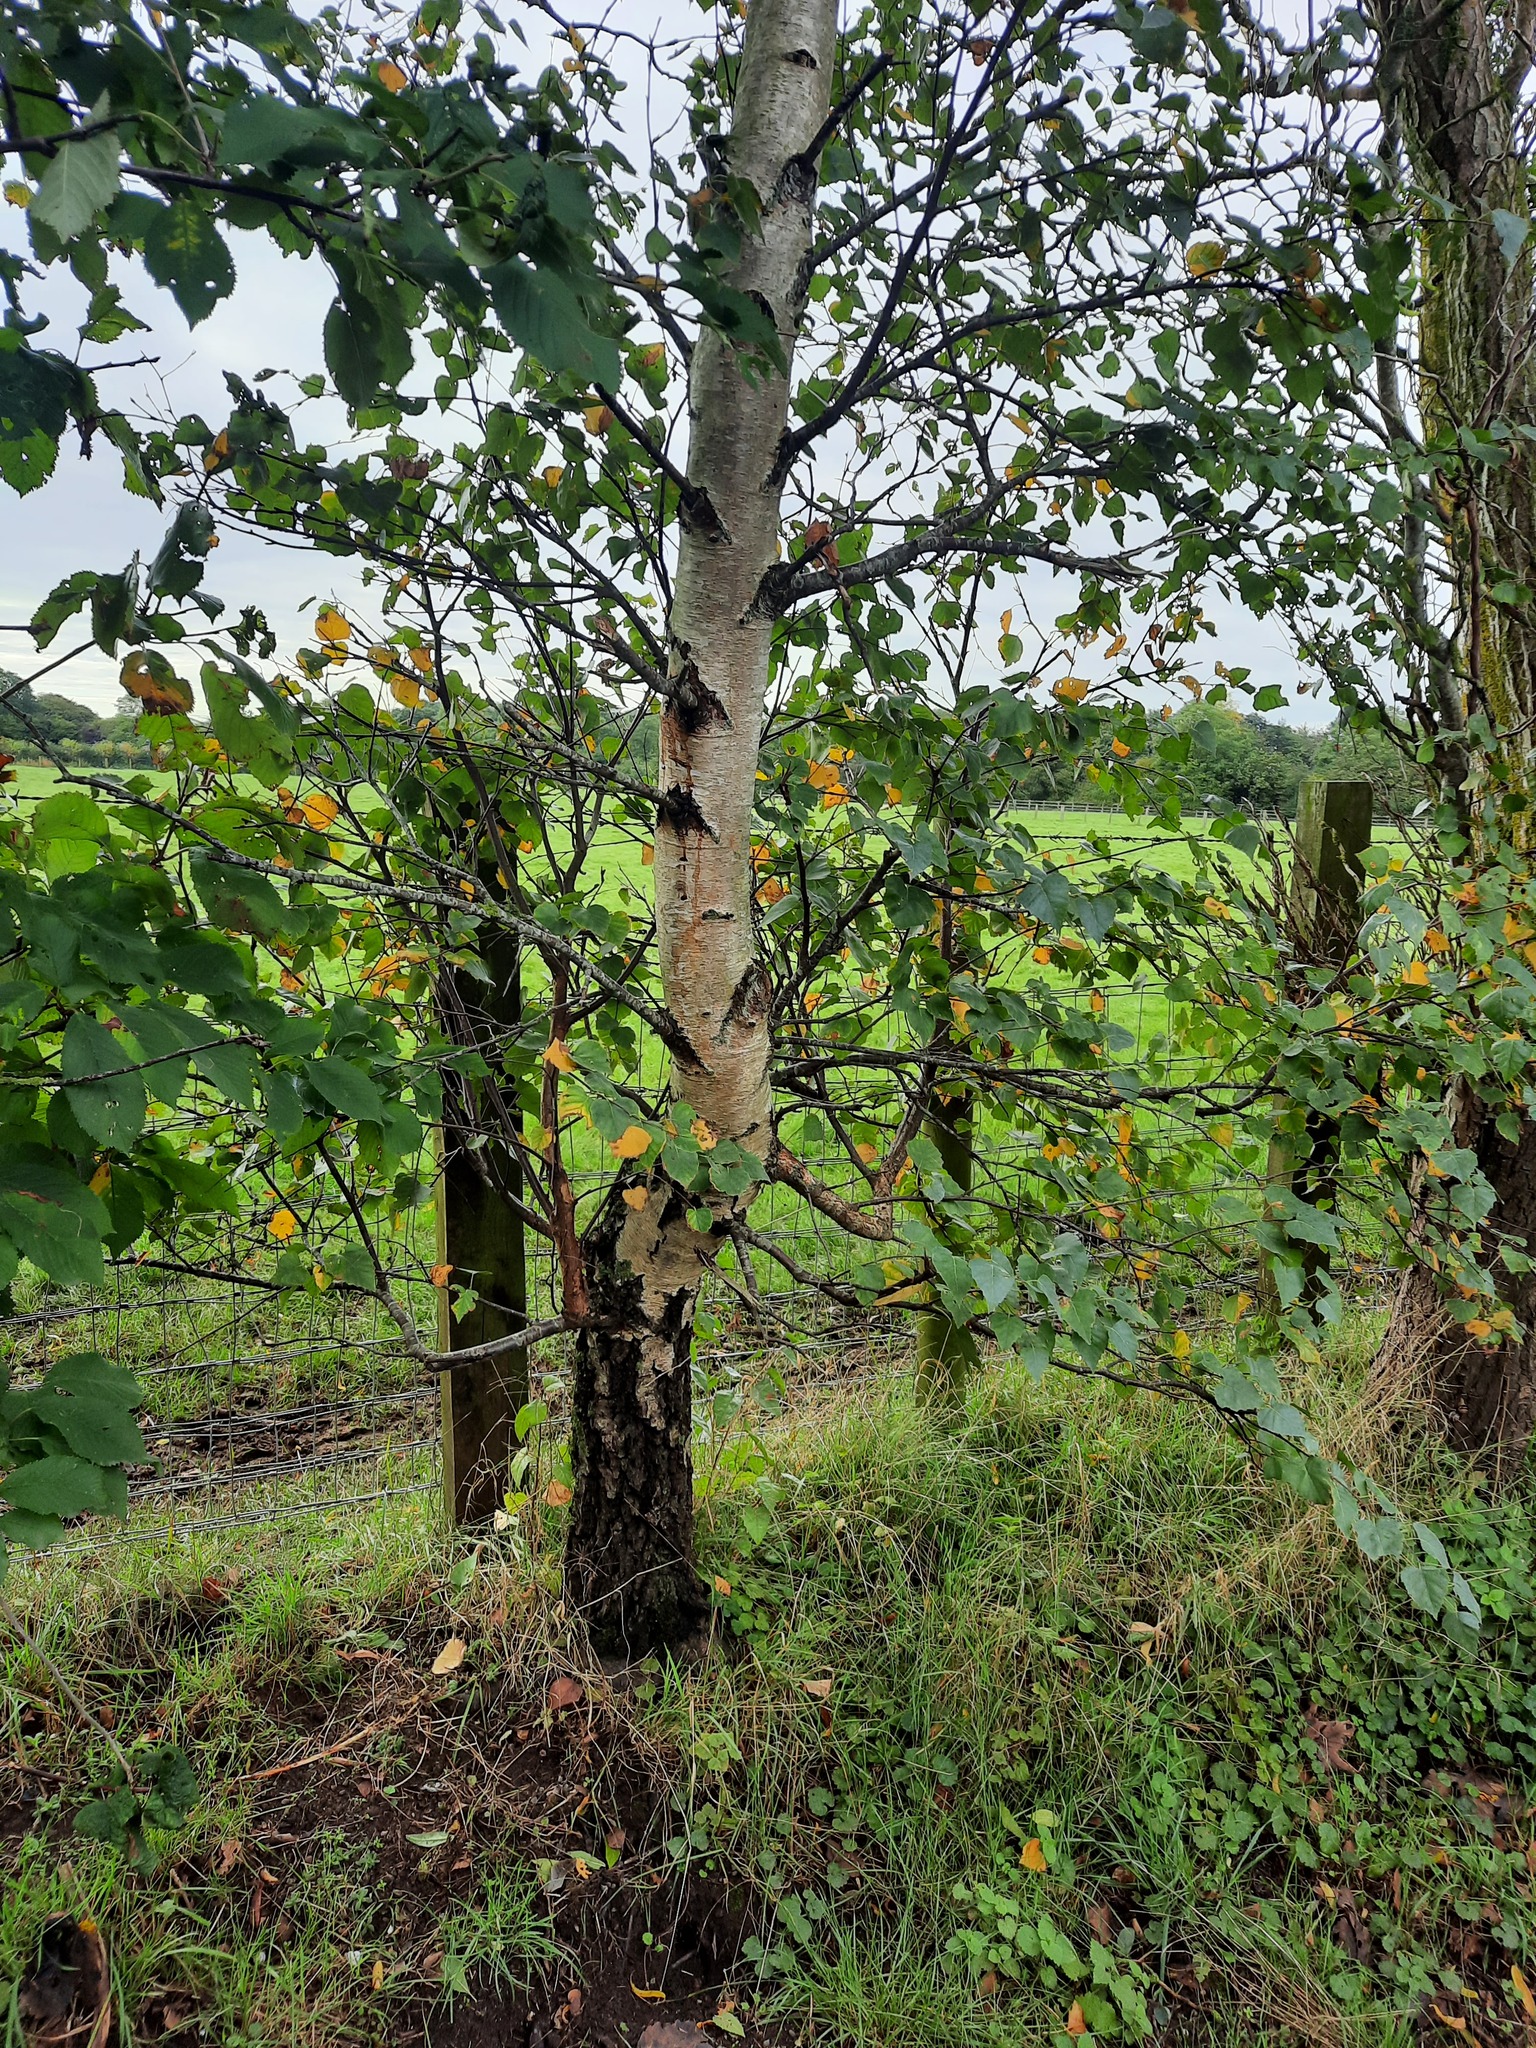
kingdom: Plantae
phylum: Tracheophyta
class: Magnoliopsida
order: Fagales
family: Betulaceae
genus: Betula
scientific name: Betula pendula
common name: Silver birch
